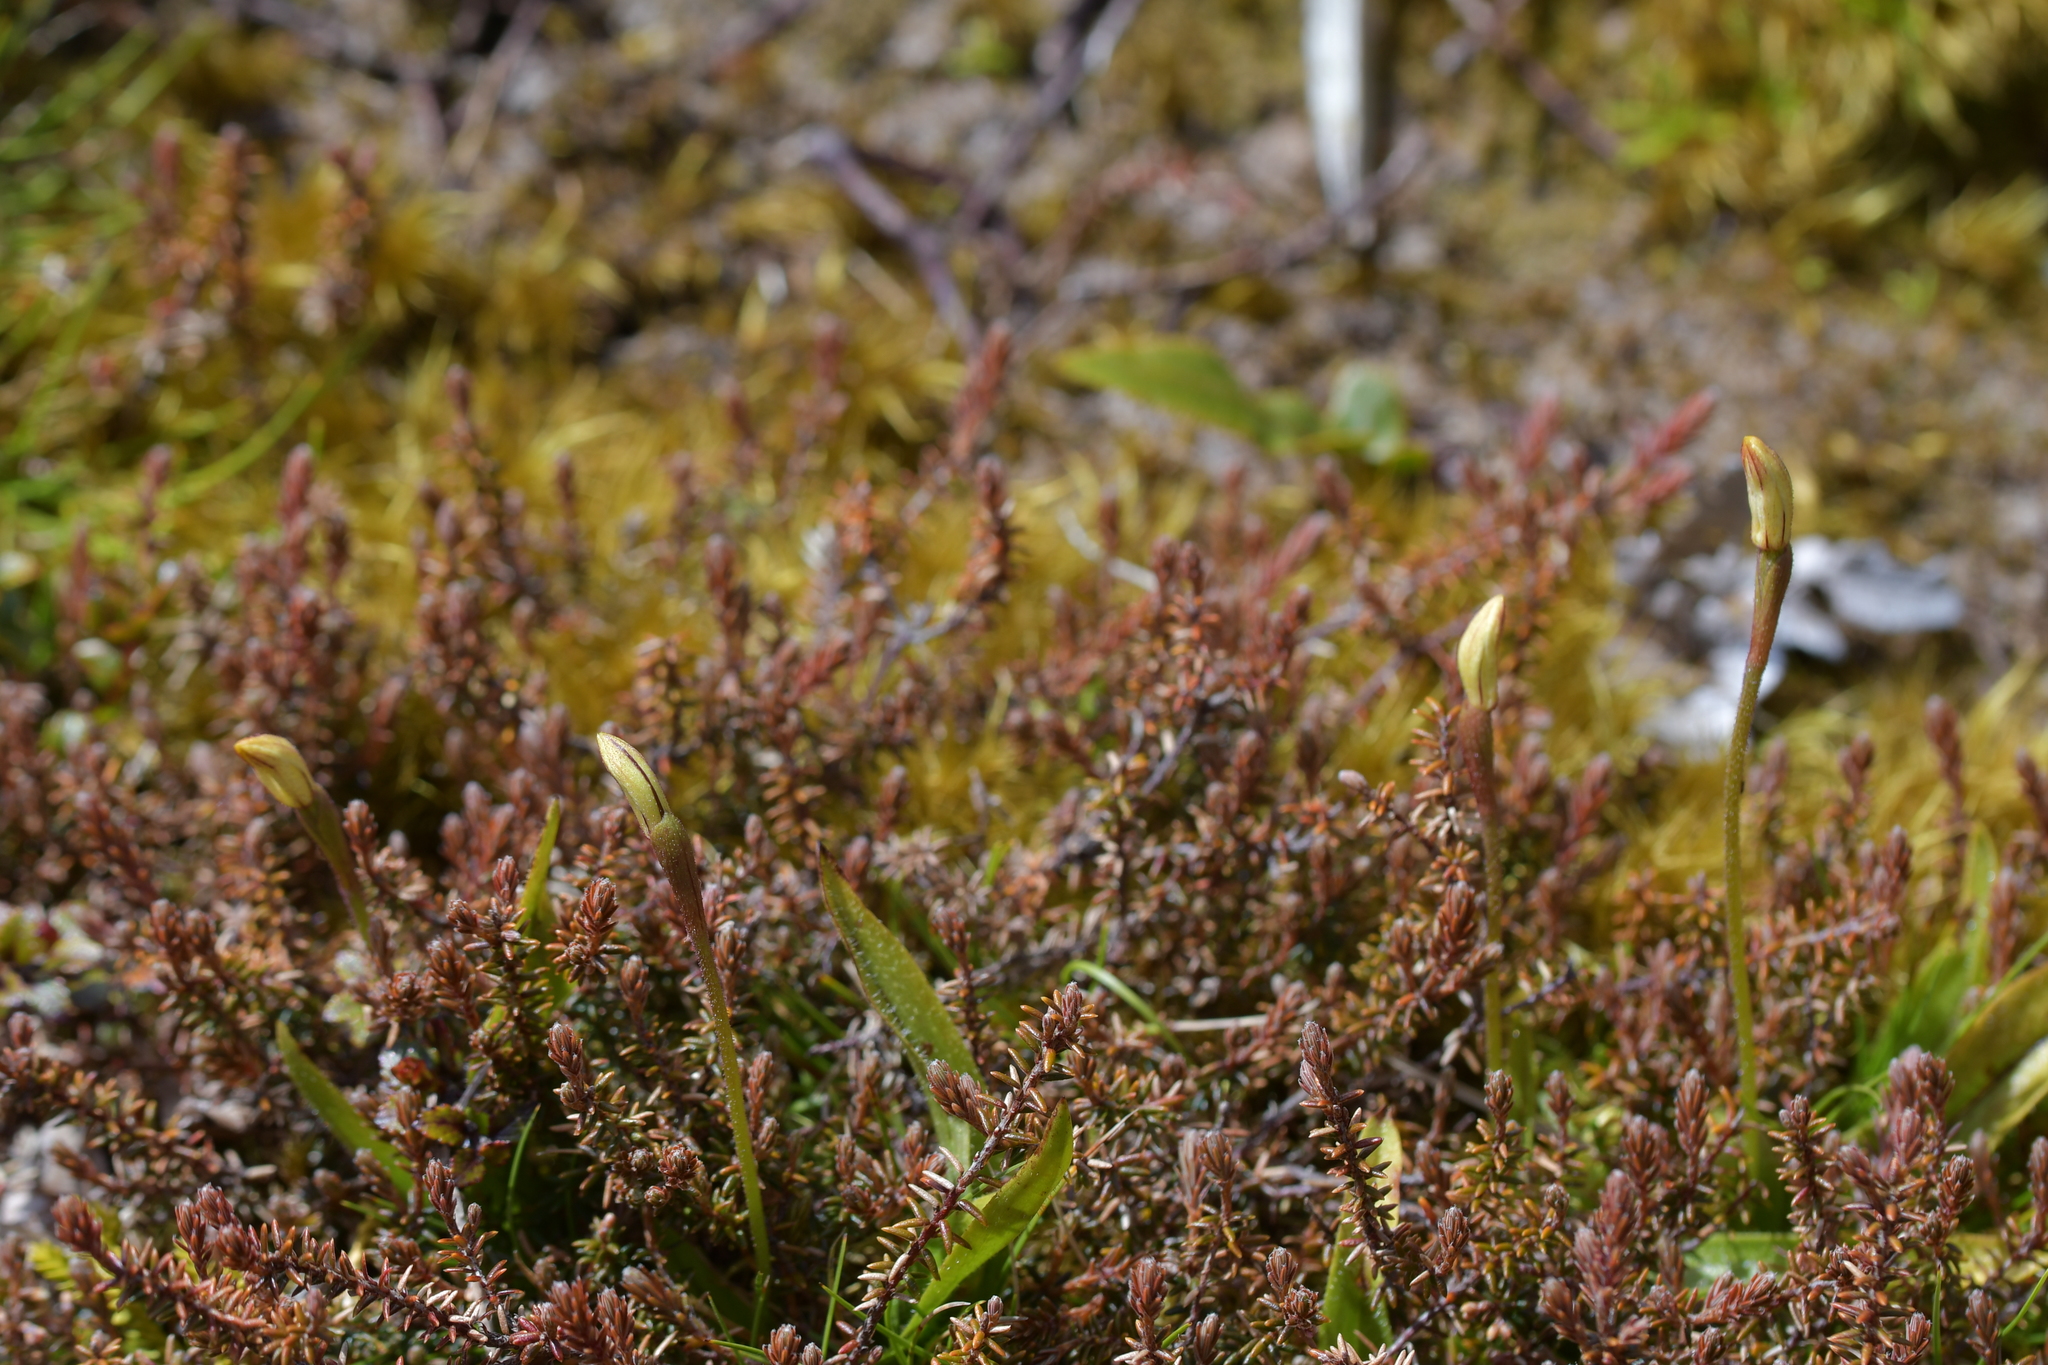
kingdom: Plantae
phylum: Tracheophyta
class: Liliopsida
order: Asparagales
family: Orchidaceae
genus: Aporostylis
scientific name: Aporostylis bifolia
